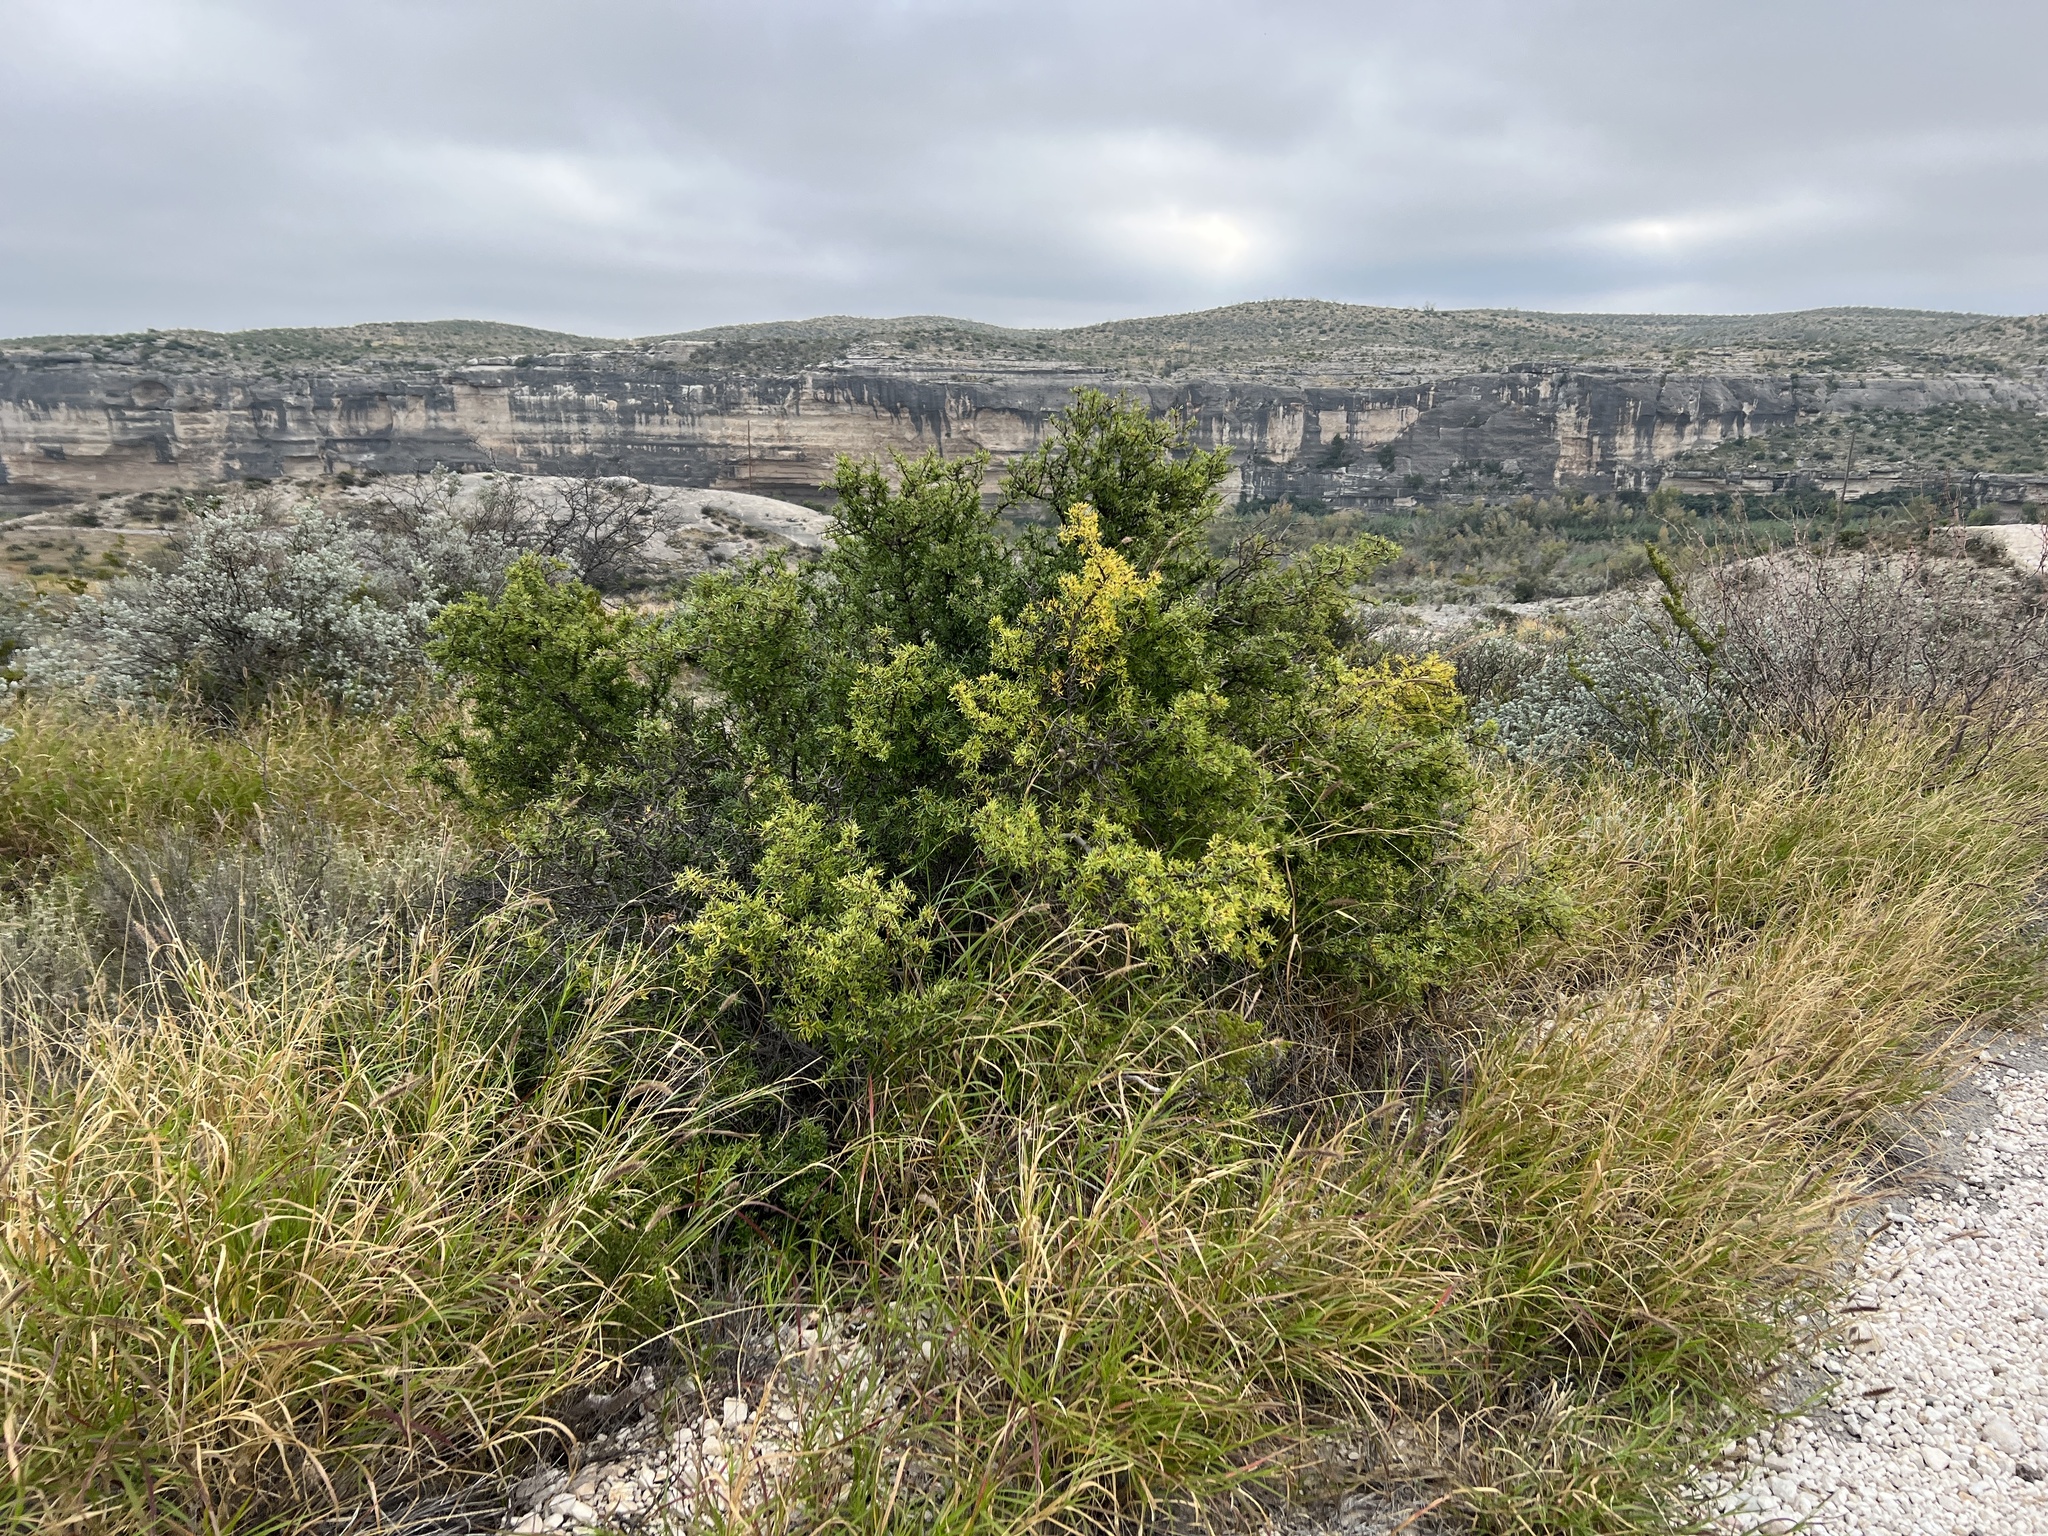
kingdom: Plantae
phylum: Tracheophyta
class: Magnoliopsida
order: Lamiales
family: Oleaceae
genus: Forestiera
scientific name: Forestiera angustifolia
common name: Elbowbush
